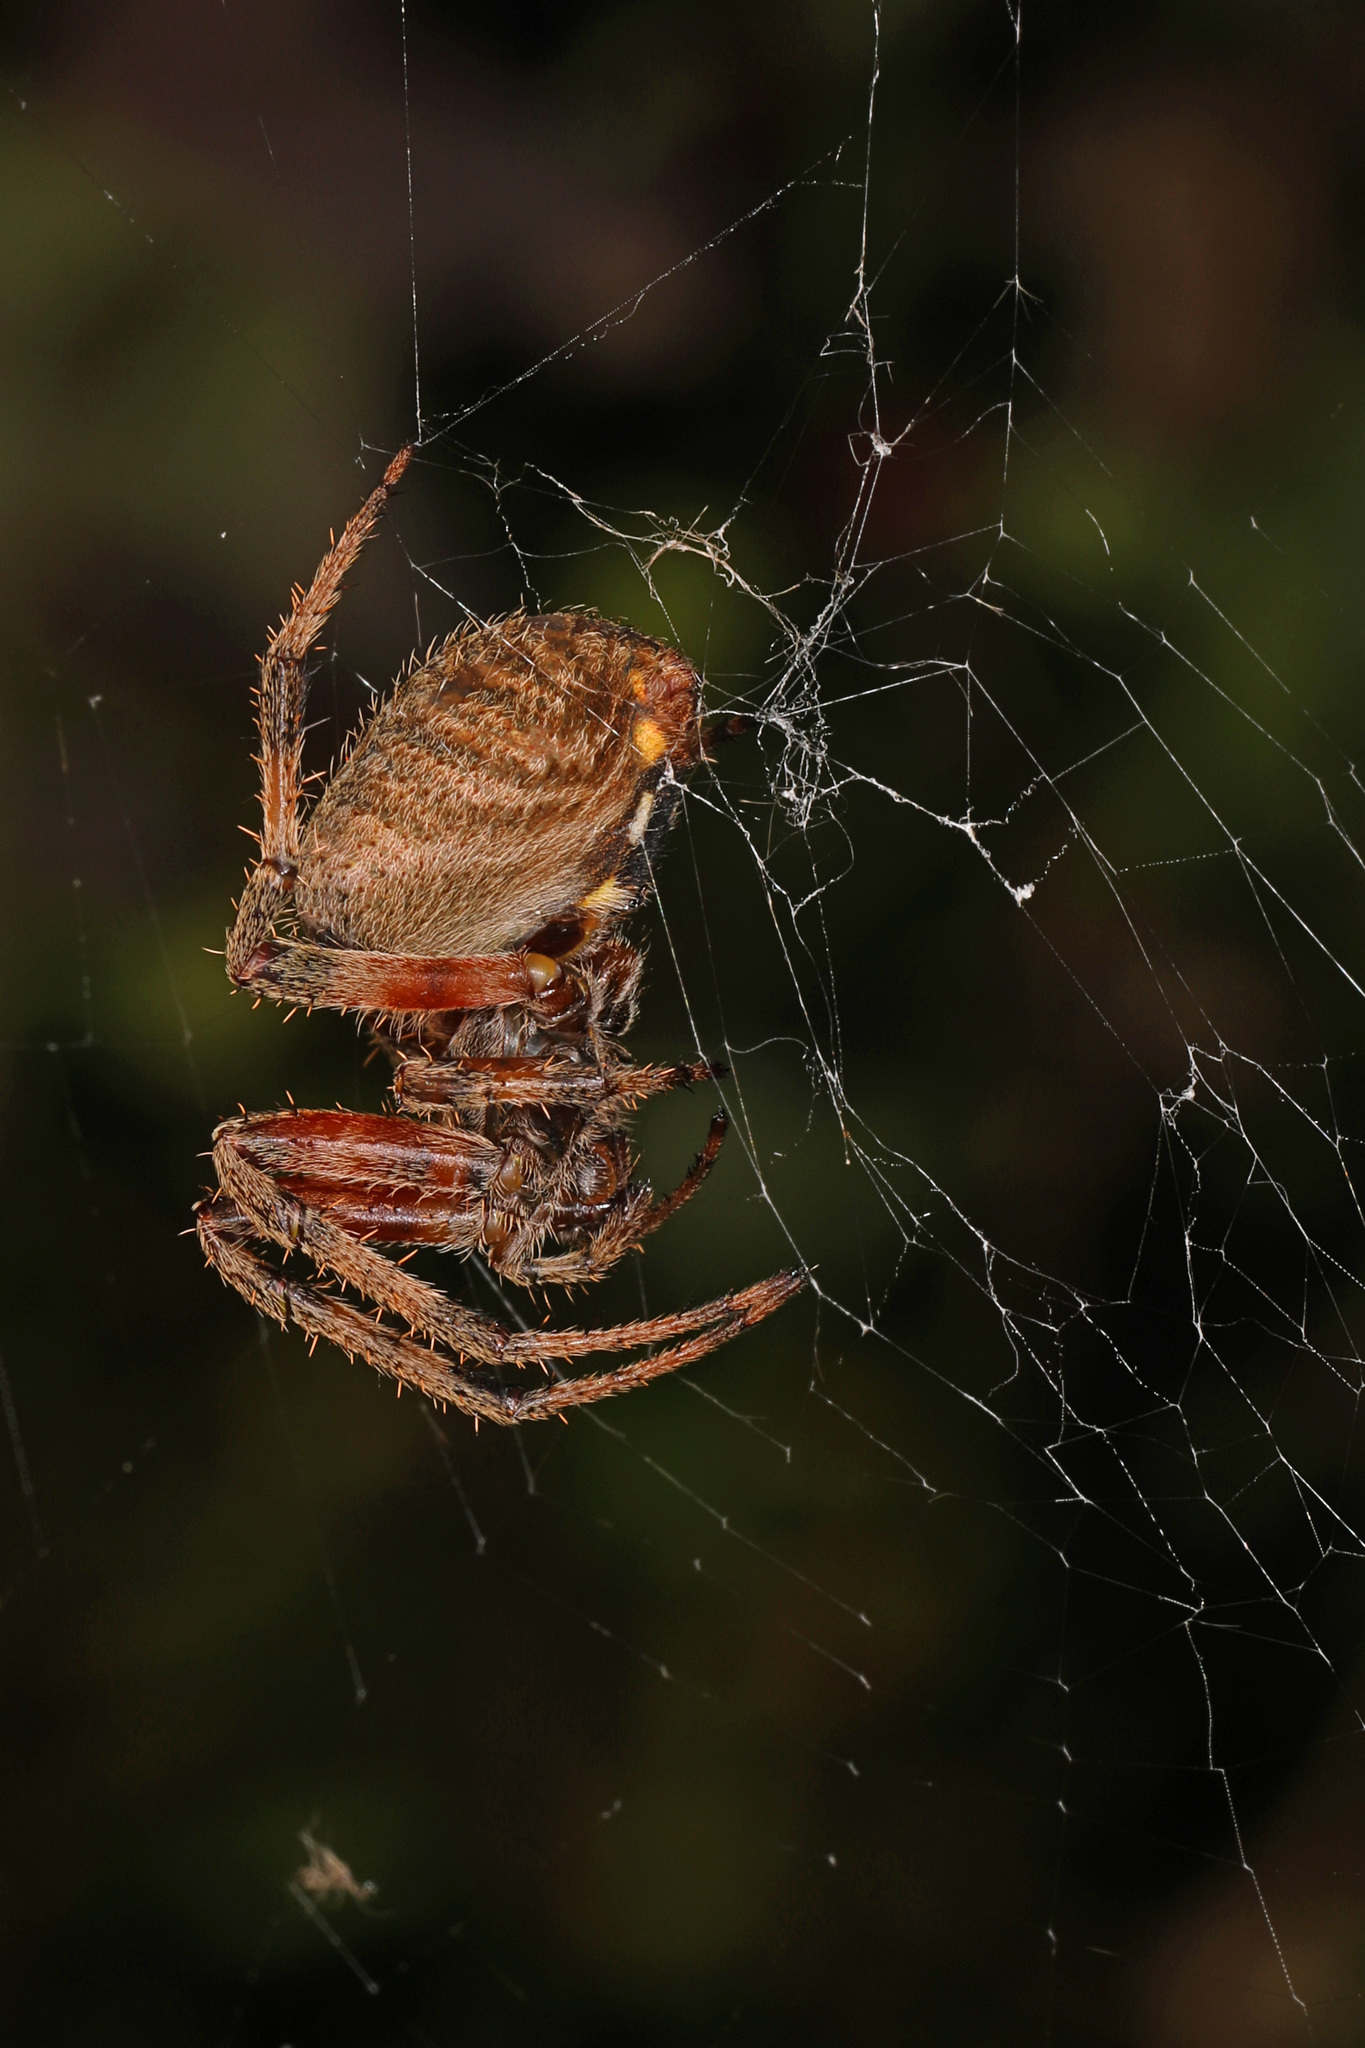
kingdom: Animalia
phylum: Arthropoda
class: Arachnida
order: Araneae
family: Araneidae
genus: Neoscona
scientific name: Neoscona crucifera
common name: Spotted orbweaver
